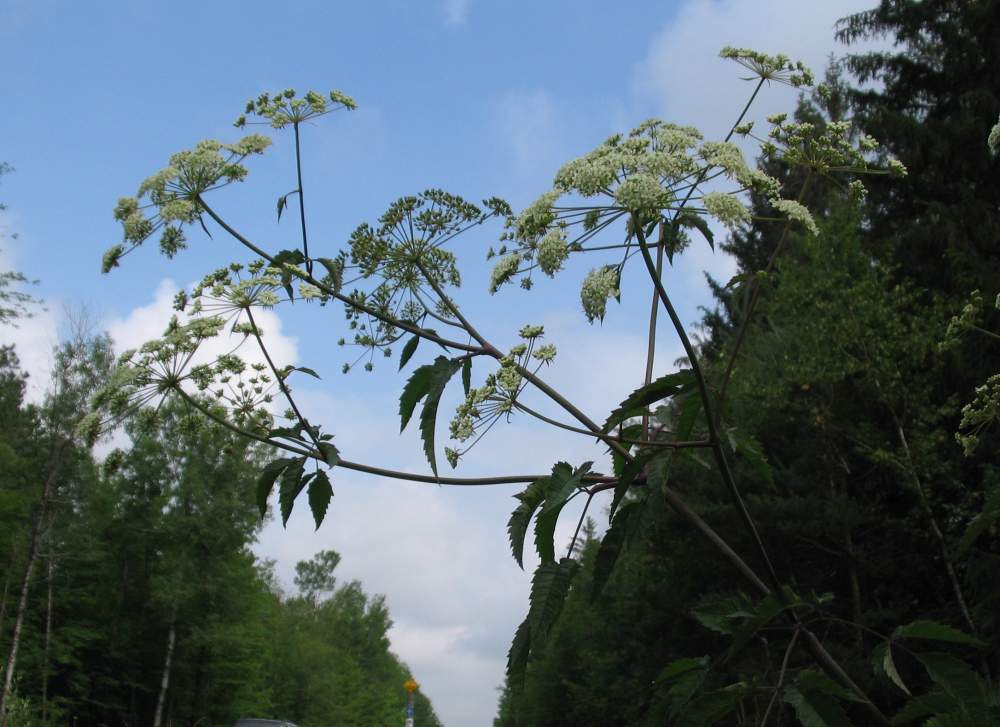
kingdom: Plantae
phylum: Tracheophyta
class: Magnoliopsida
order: Apiales
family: Apiaceae
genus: Cicuta
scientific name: Cicuta maculata
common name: Spotted cowbane
